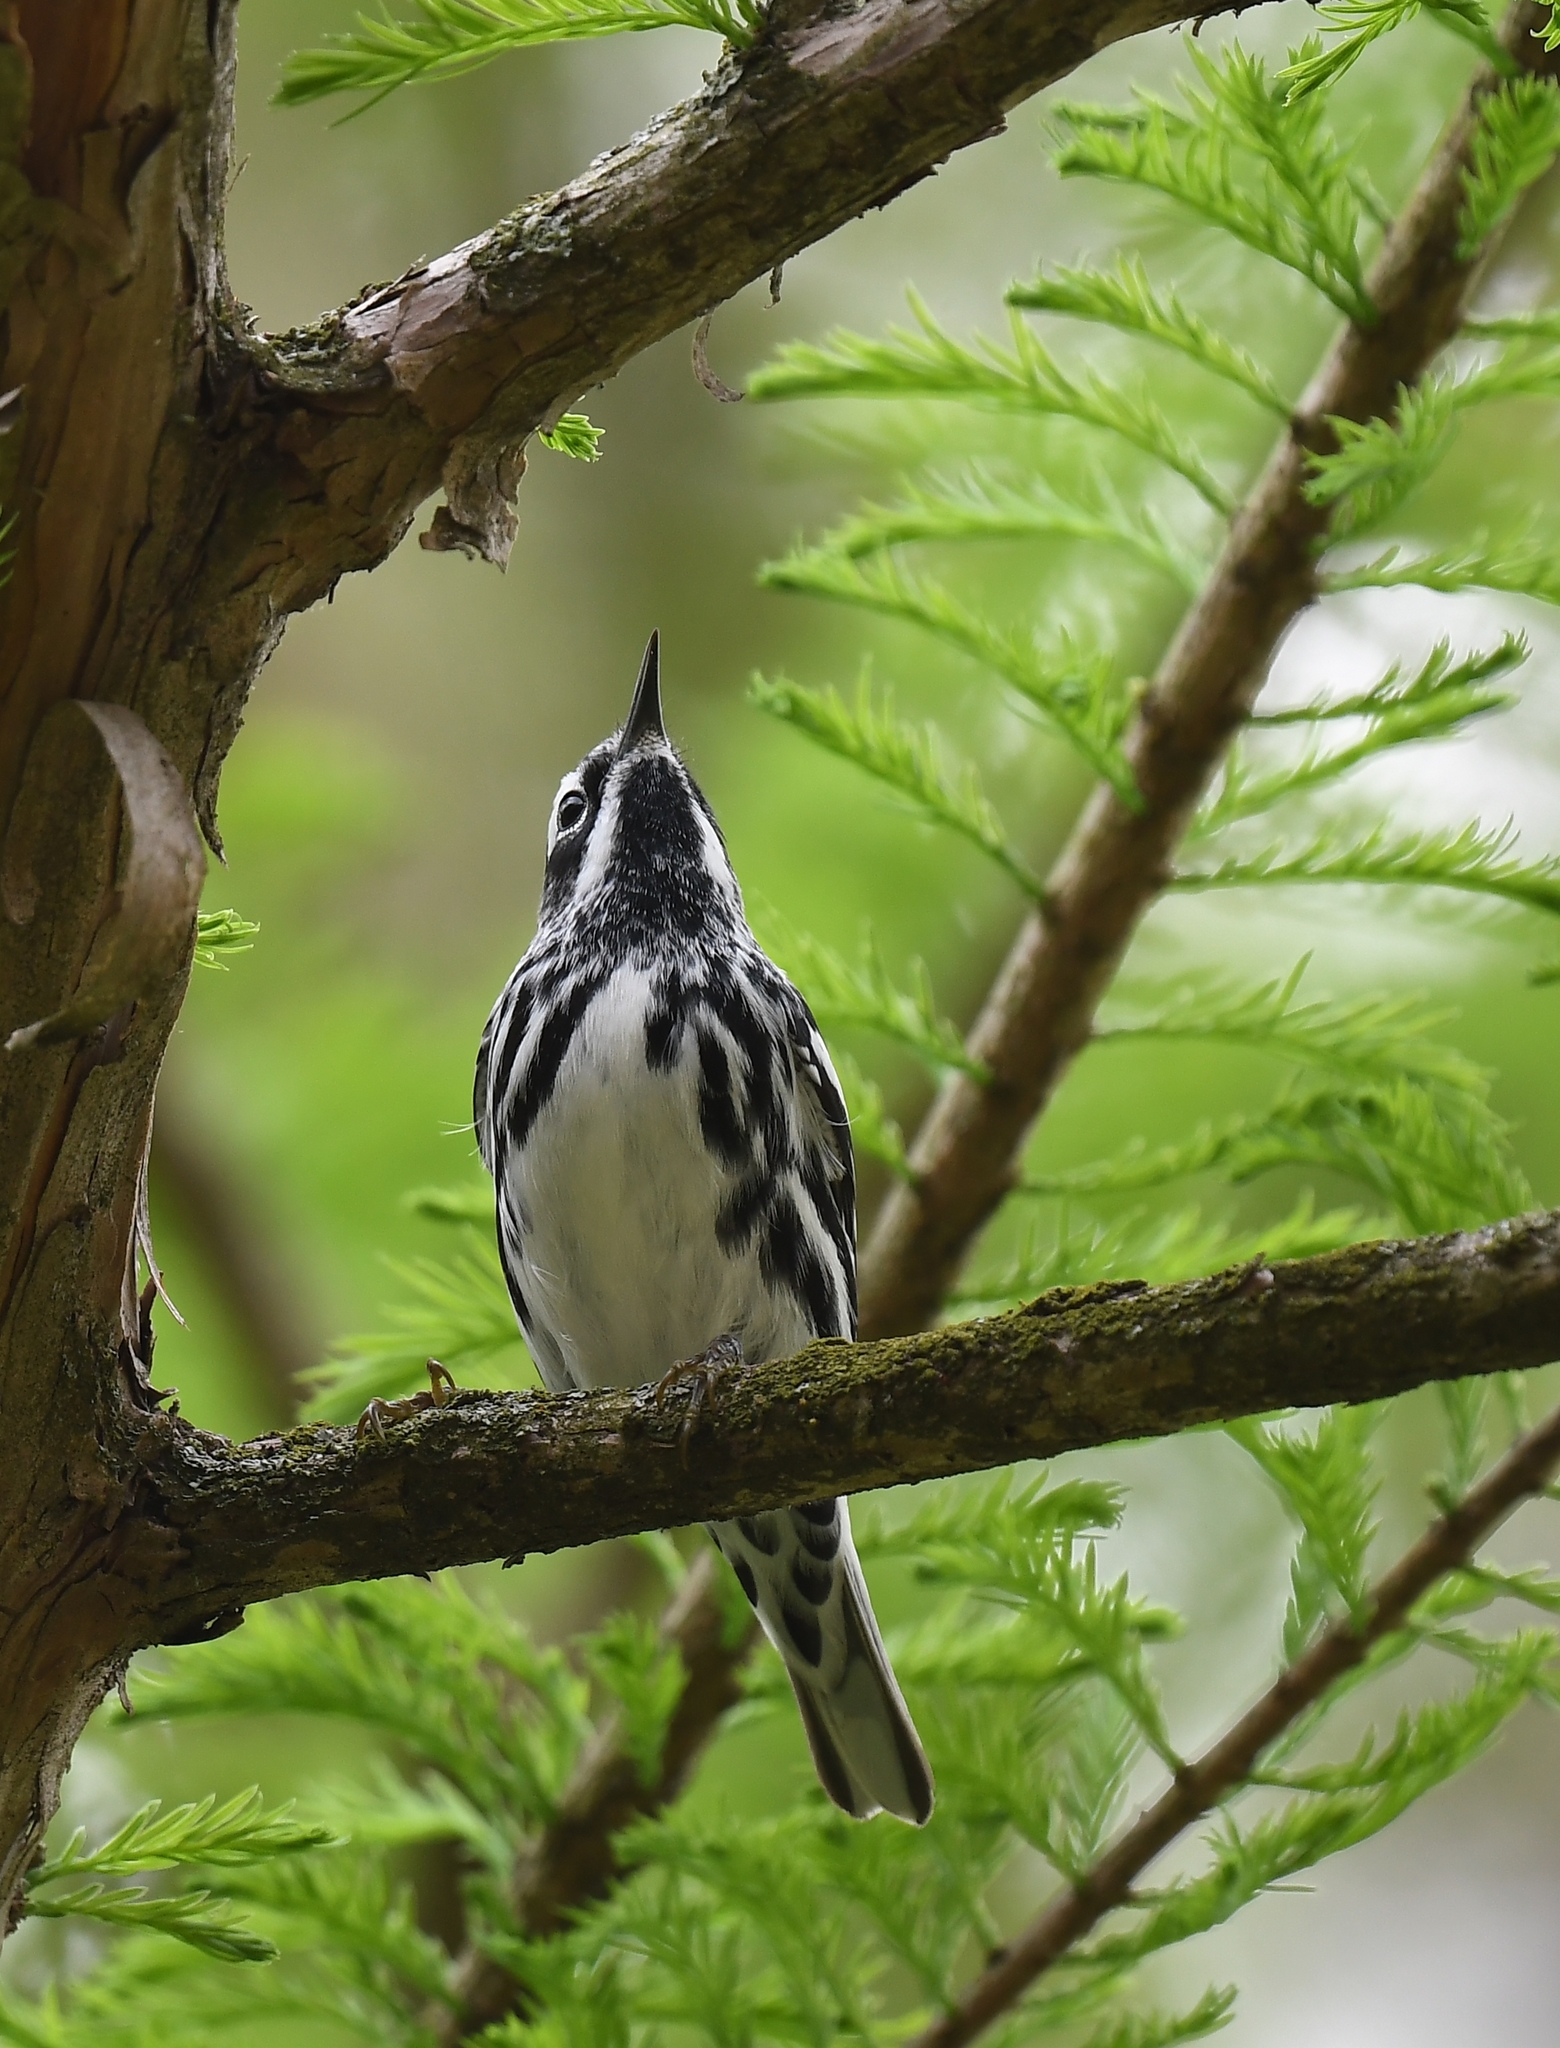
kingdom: Animalia
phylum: Chordata
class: Aves
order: Passeriformes
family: Parulidae
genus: Mniotilta
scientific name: Mniotilta varia
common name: Black-and-white warbler
